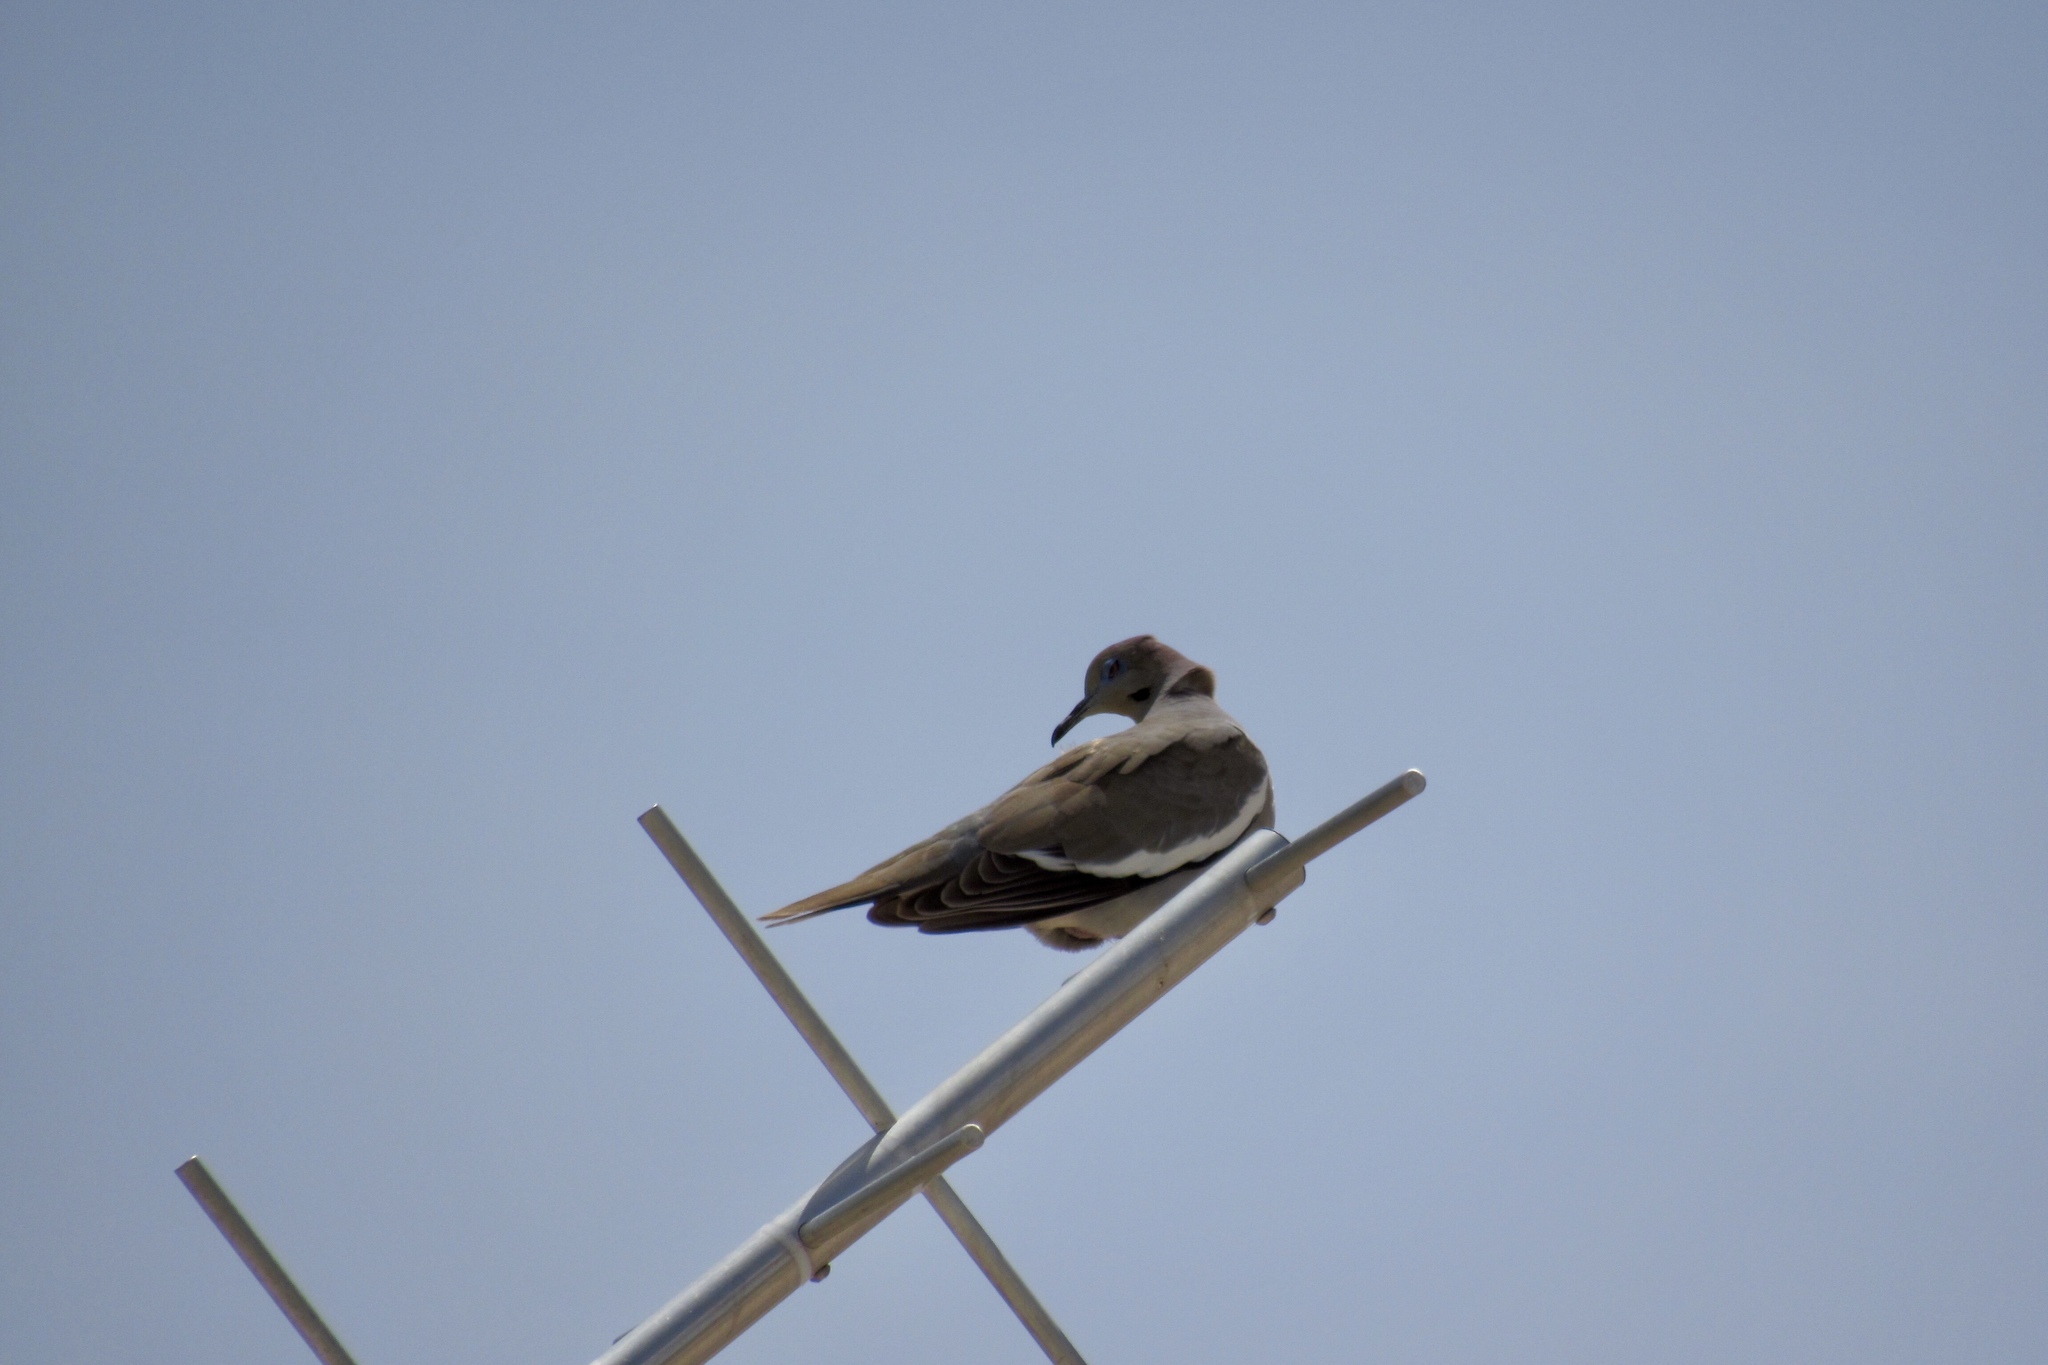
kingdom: Animalia
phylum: Chordata
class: Aves
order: Columbiformes
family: Columbidae
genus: Zenaida
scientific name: Zenaida asiatica
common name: White-winged dove
